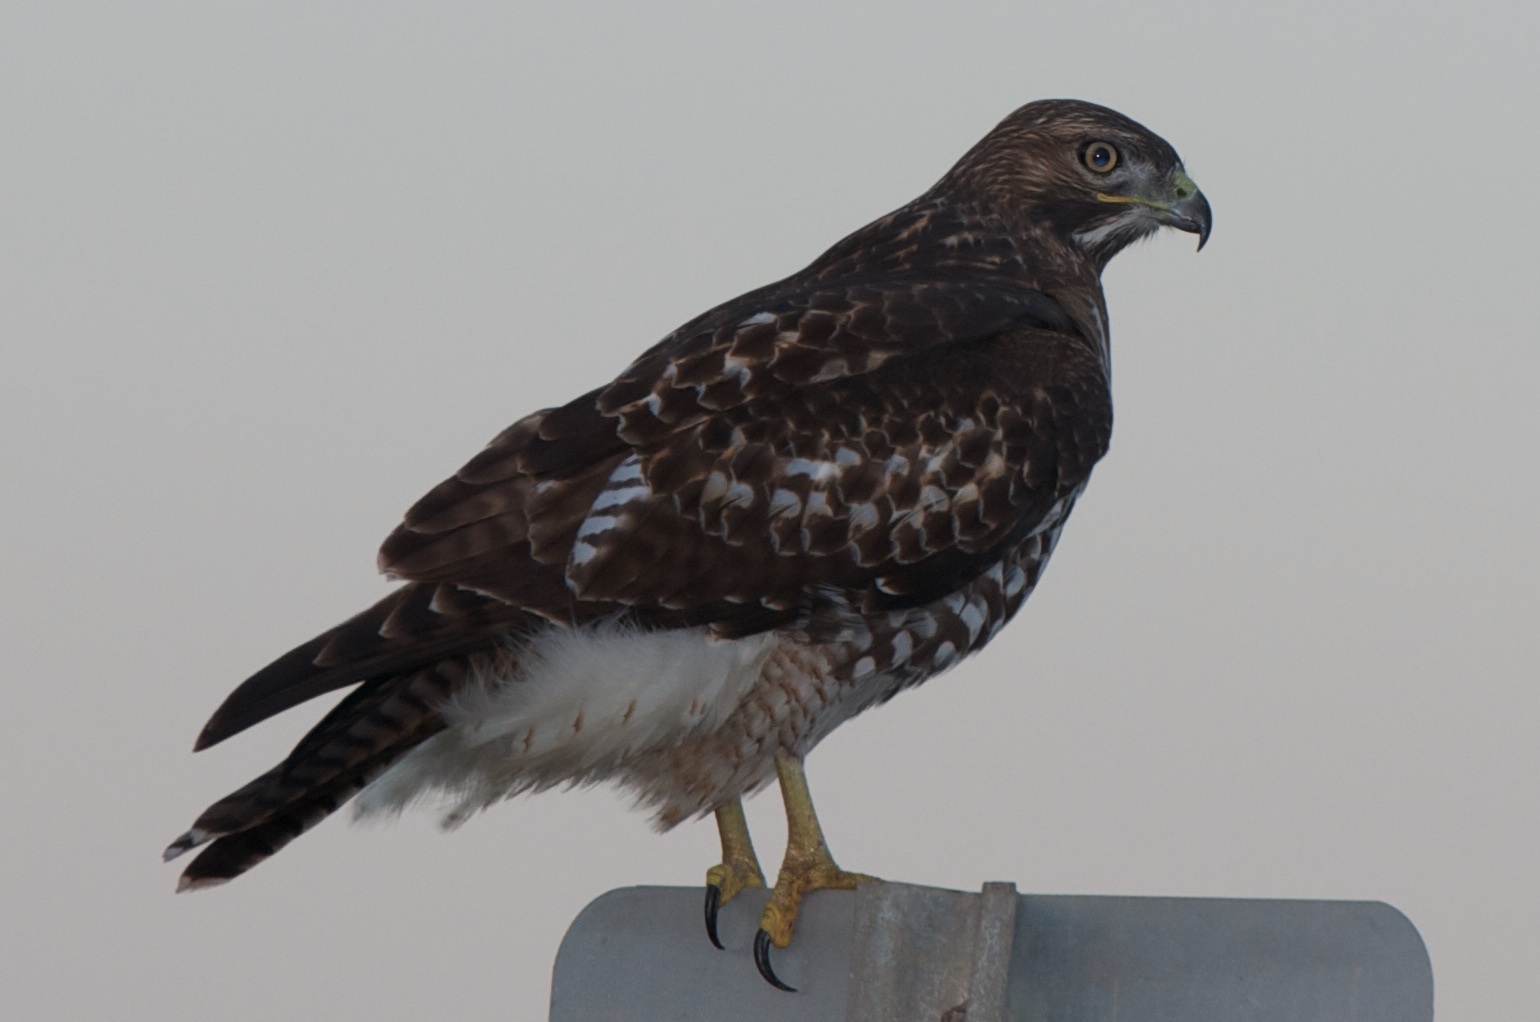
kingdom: Animalia
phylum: Chordata
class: Aves
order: Accipitriformes
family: Accipitridae
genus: Buteo
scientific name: Buteo jamaicensis
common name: Red-tailed hawk
